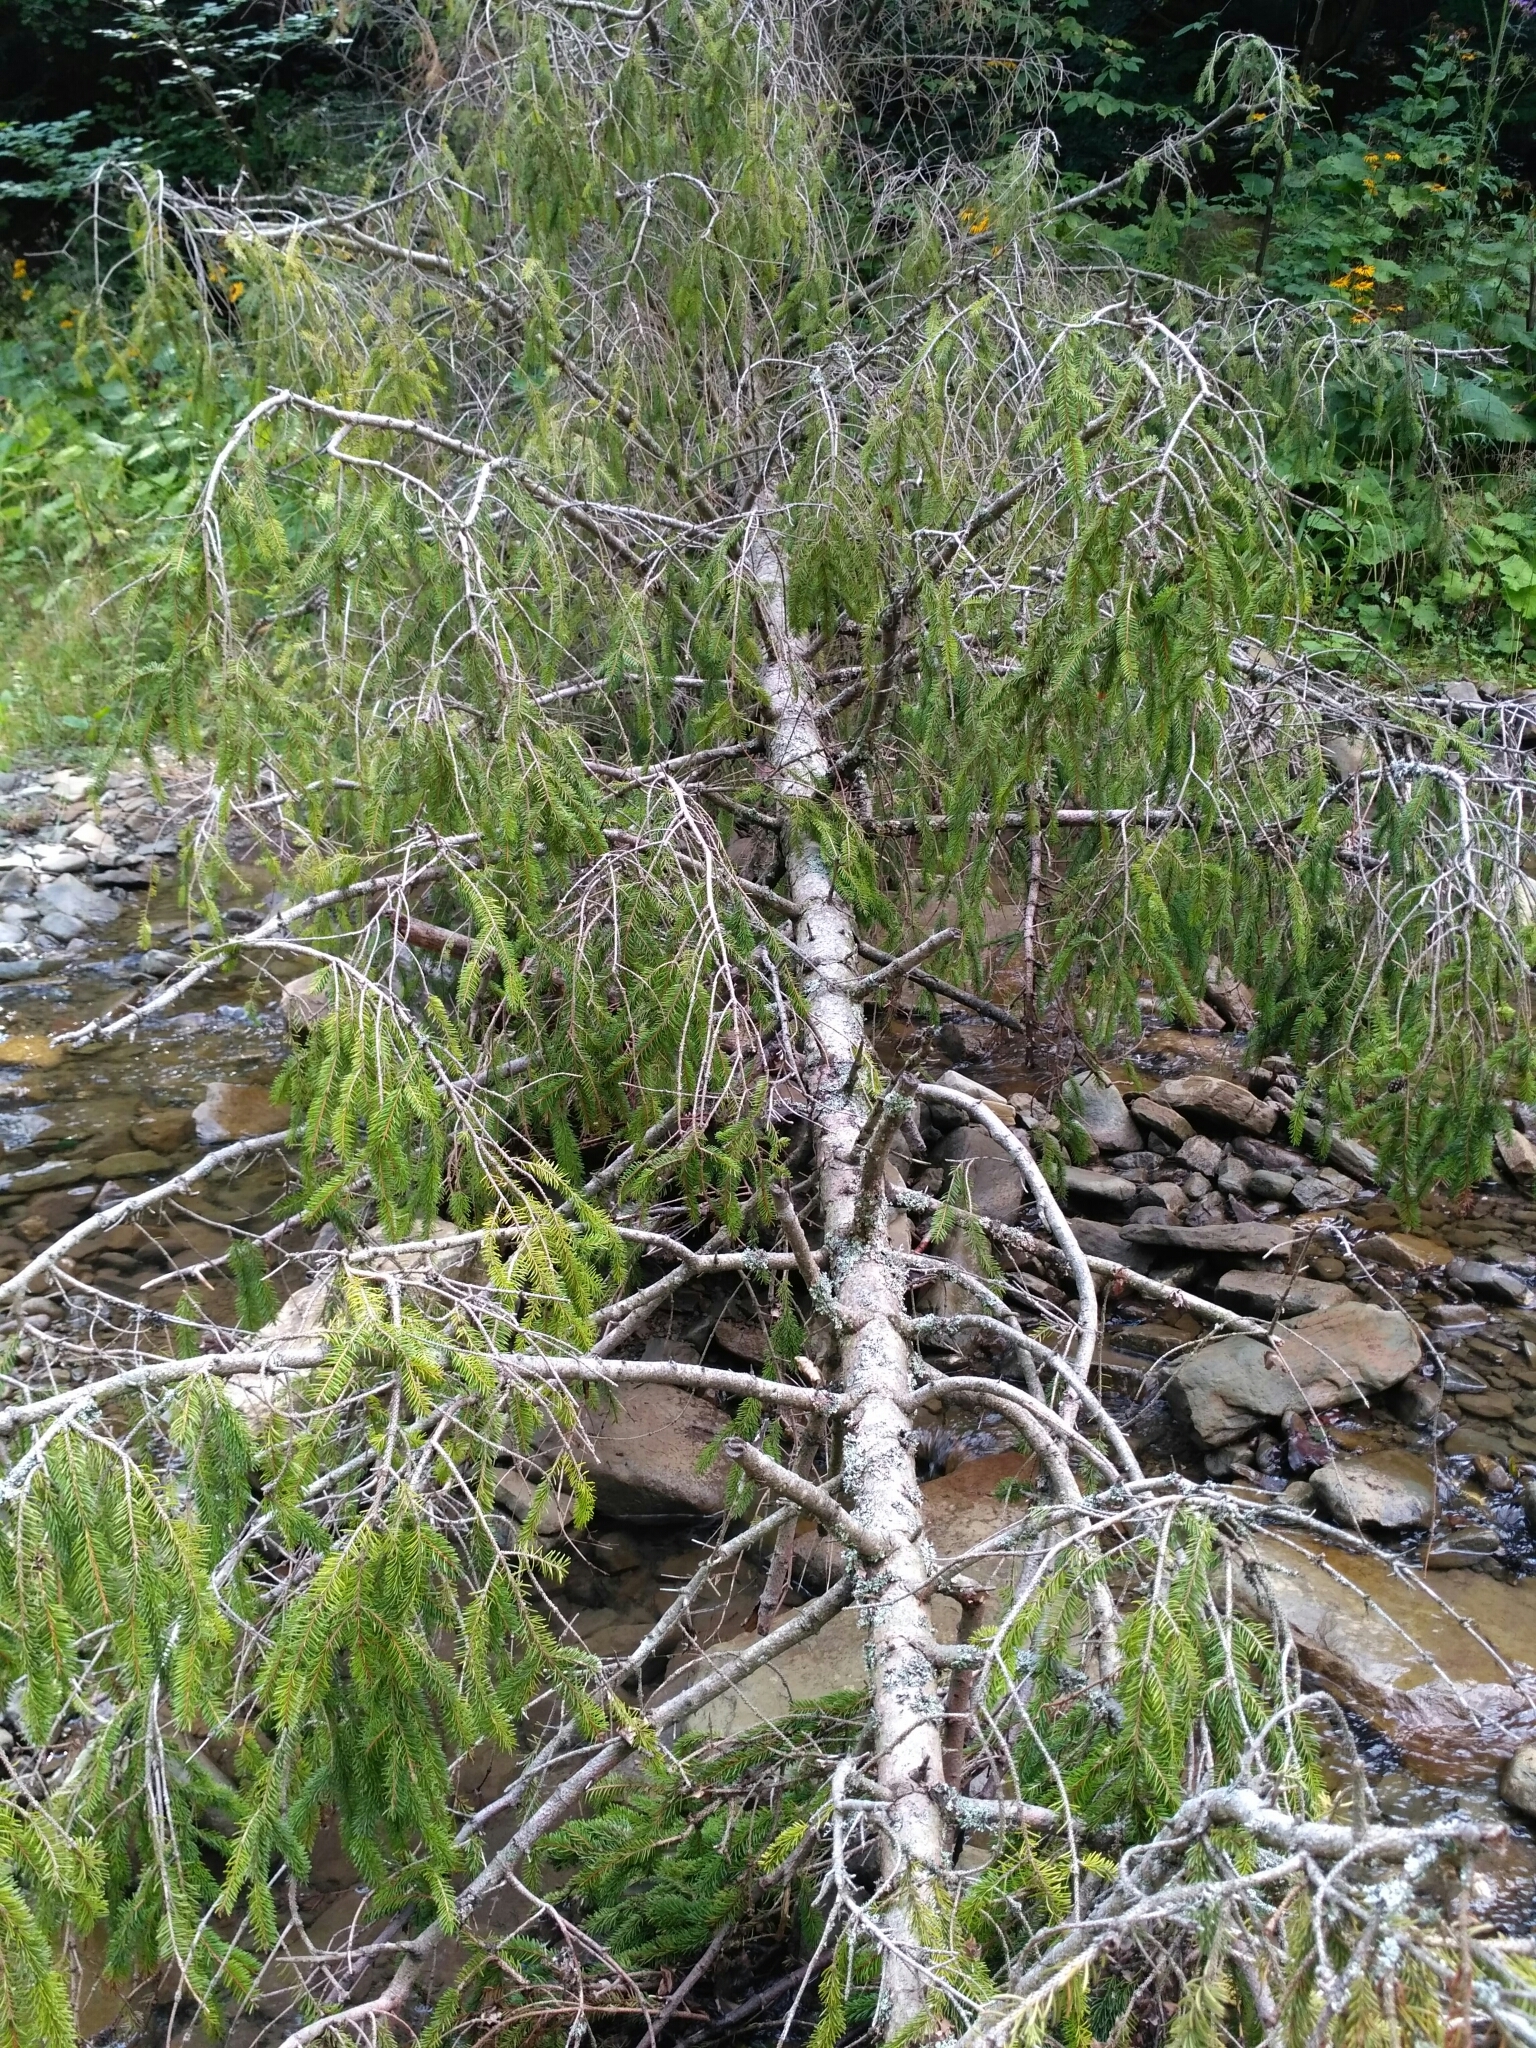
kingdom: Plantae
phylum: Tracheophyta
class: Pinopsida
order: Pinales
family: Pinaceae
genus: Picea
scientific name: Picea abies
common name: Norway spruce
